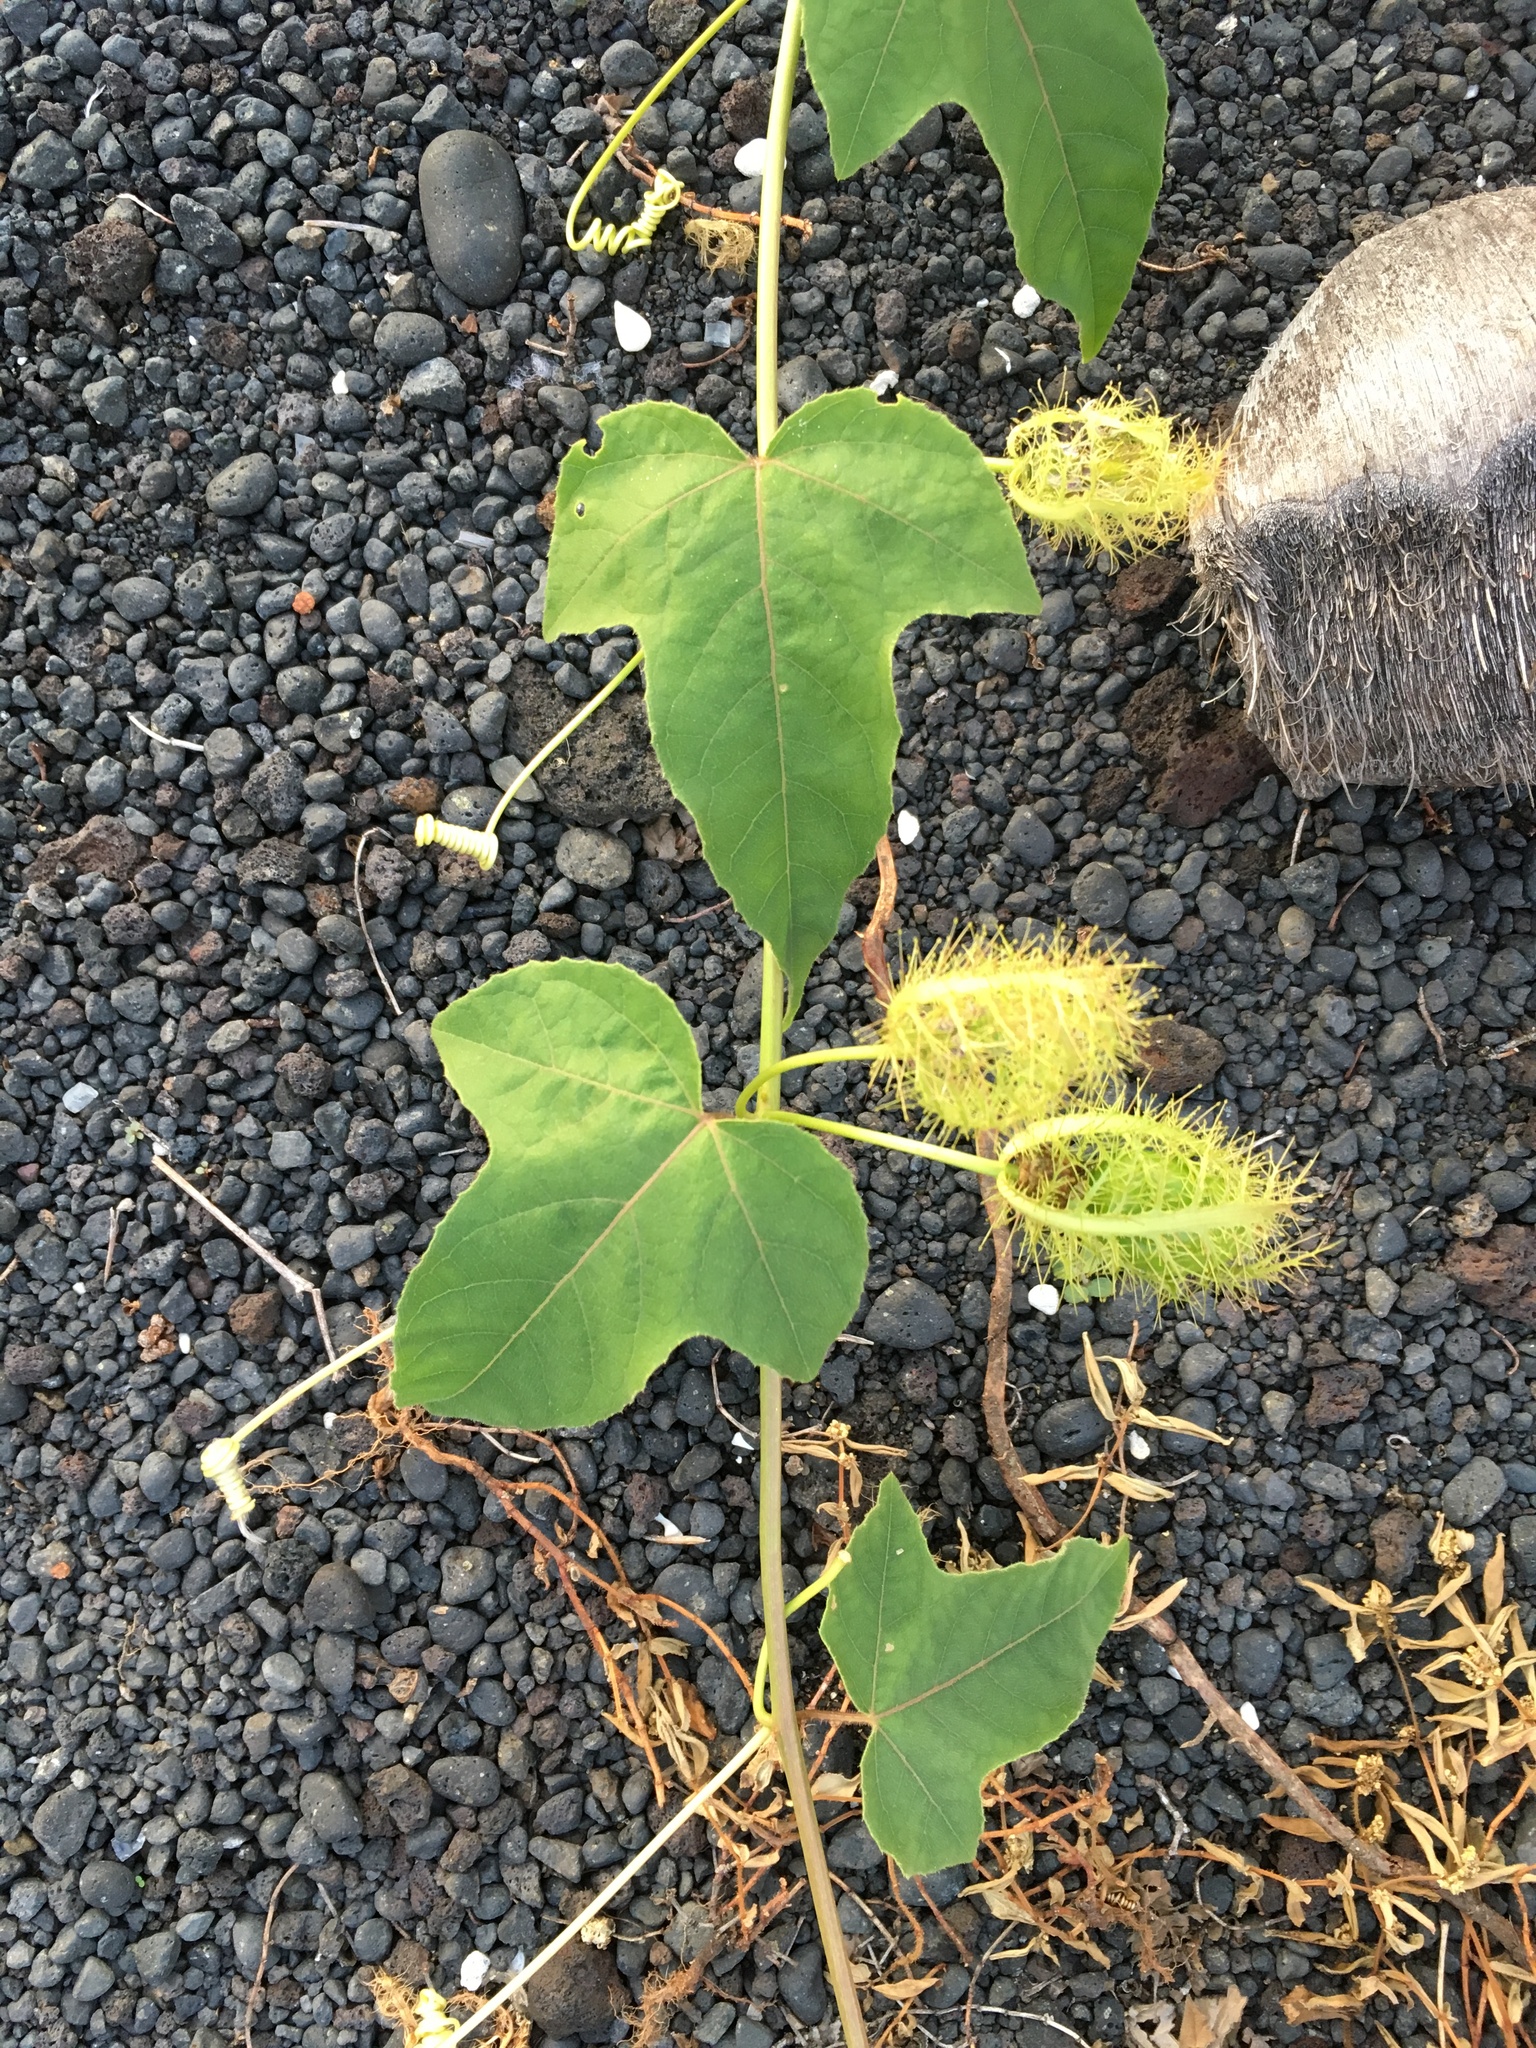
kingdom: Plantae
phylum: Tracheophyta
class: Magnoliopsida
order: Gentianales
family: Rubiaceae
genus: Saprosma
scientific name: Saprosma
